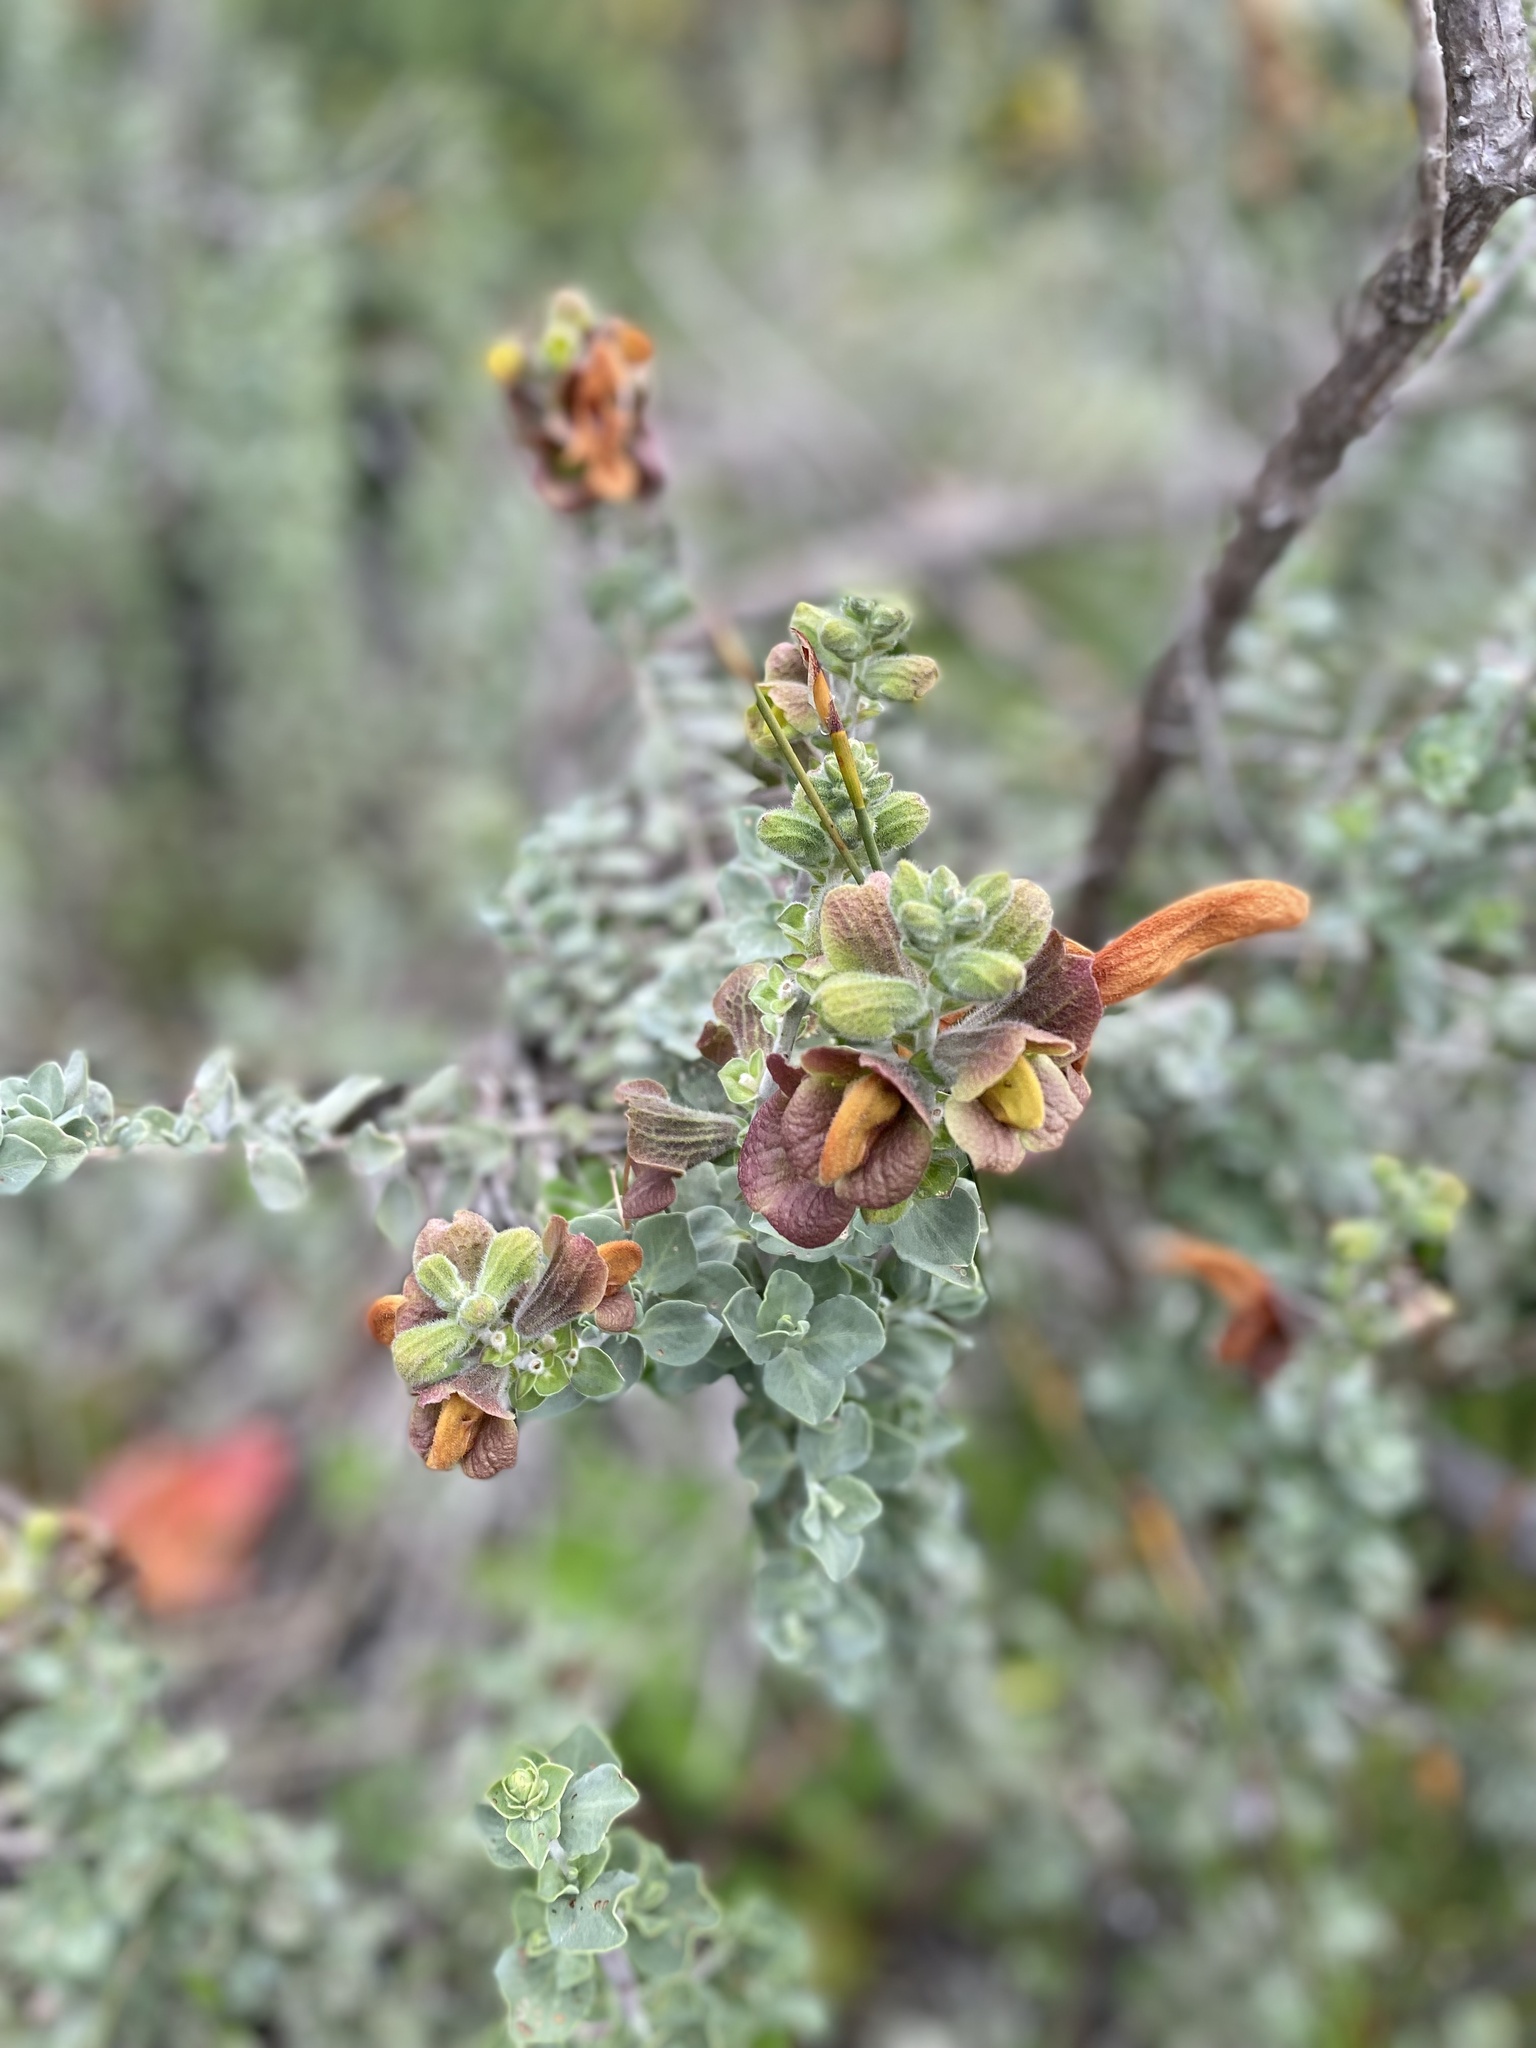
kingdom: Plantae
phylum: Tracheophyta
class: Magnoliopsida
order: Lamiales
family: Lamiaceae
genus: Salvia
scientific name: Salvia aurea
